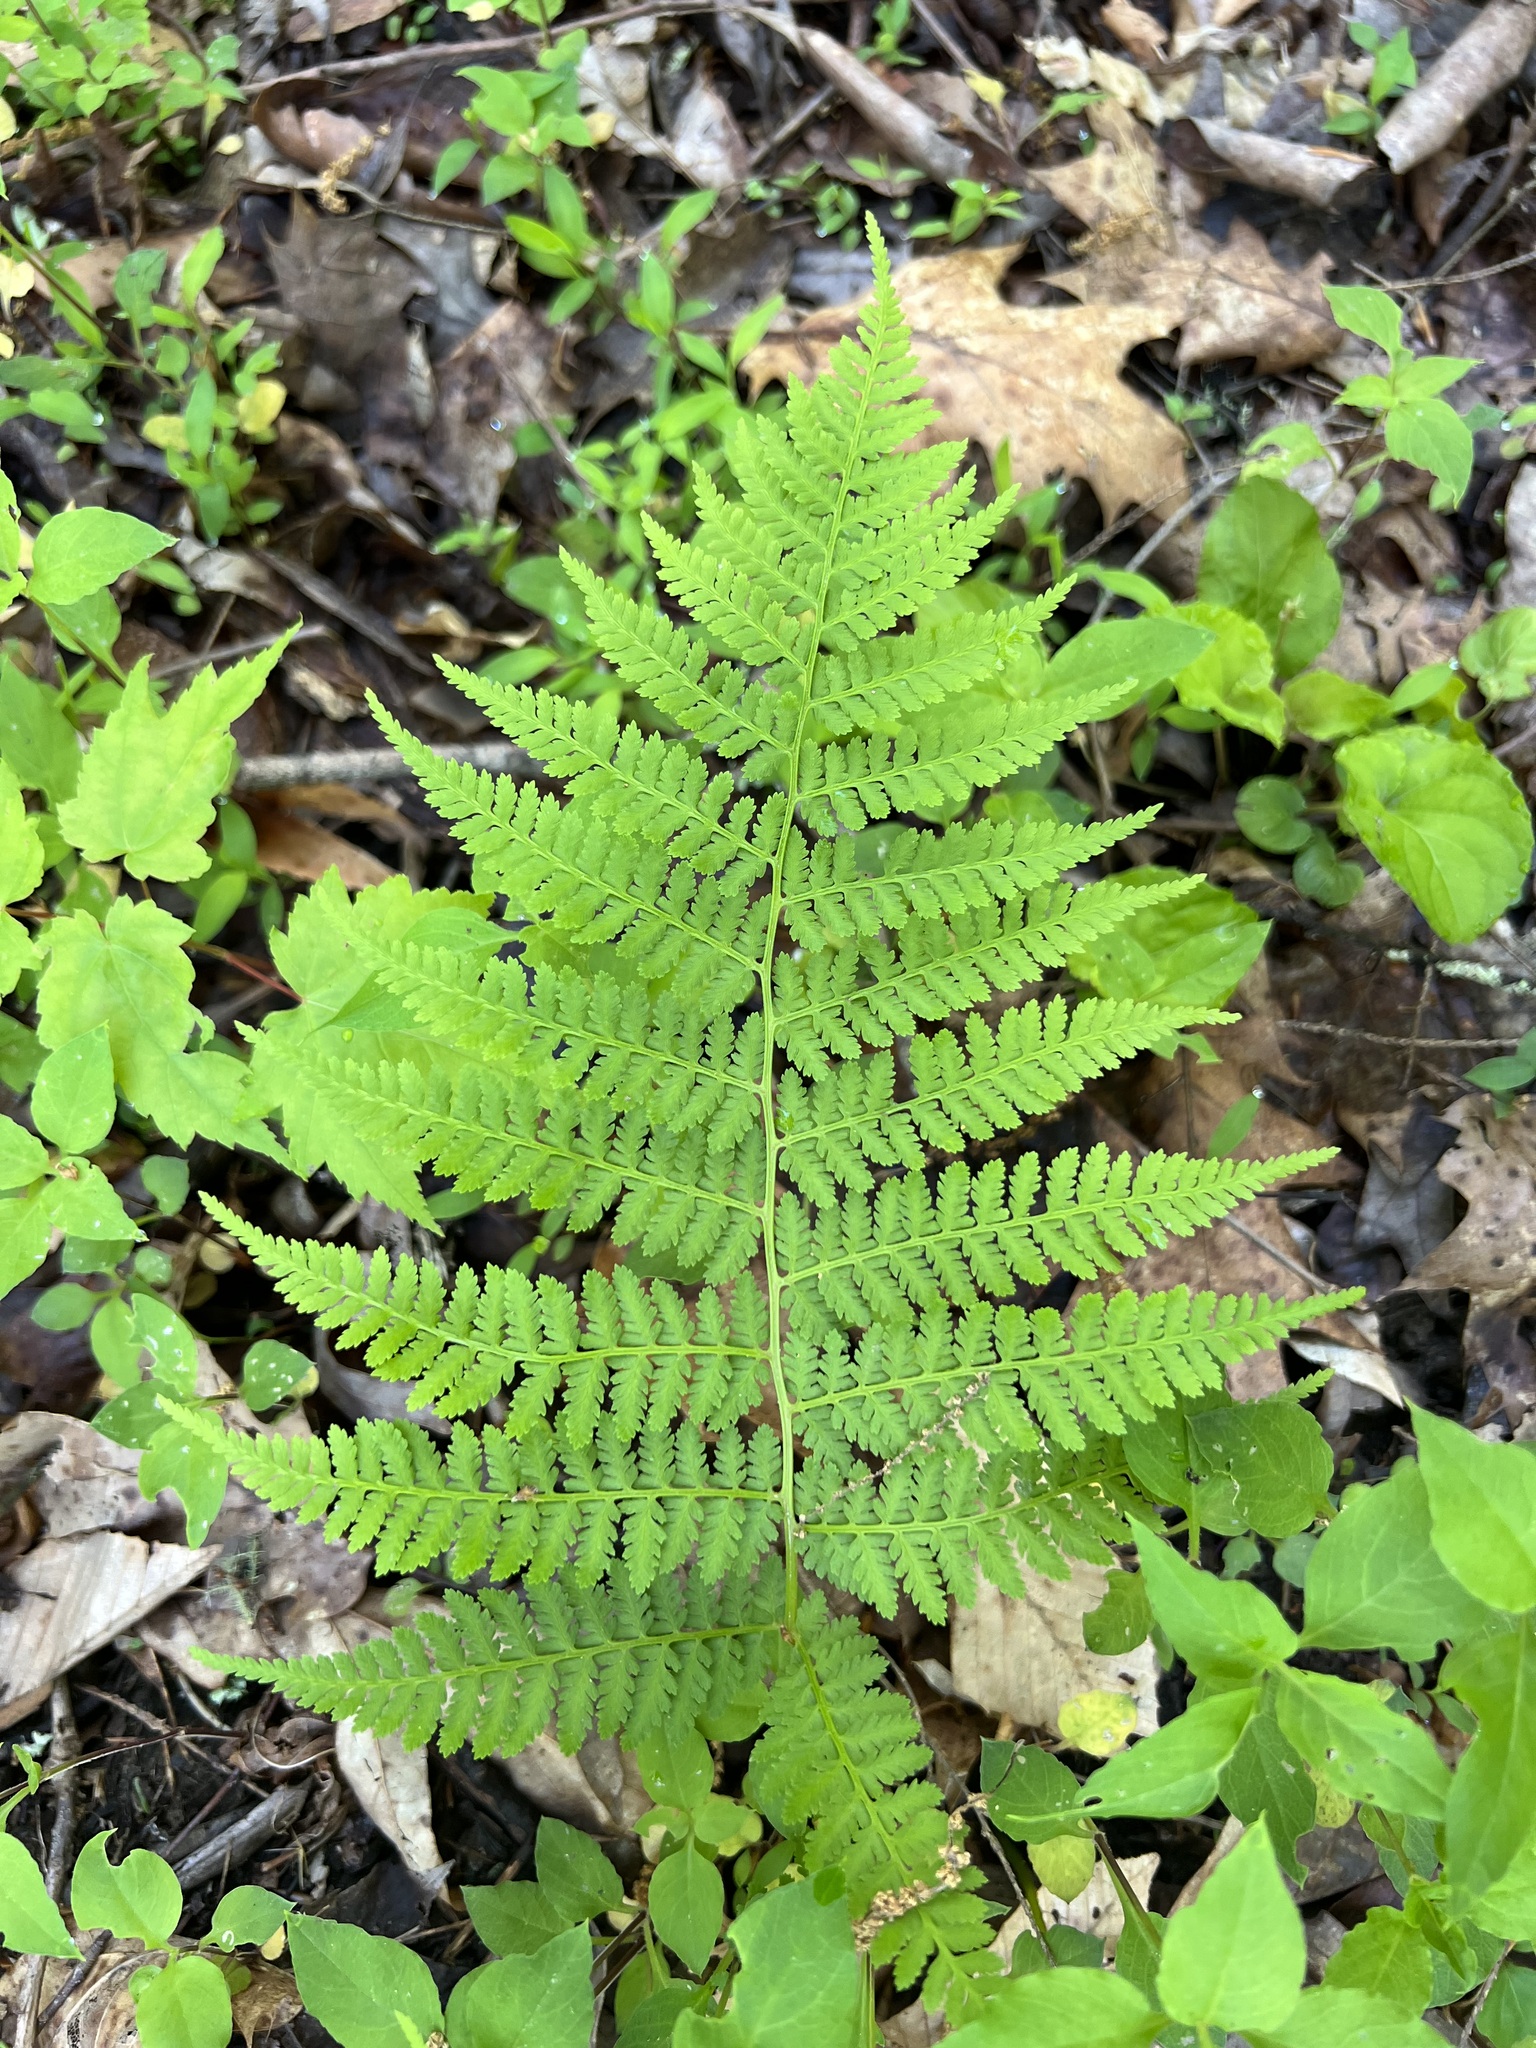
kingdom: Plantae
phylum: Tracheophyta
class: Polypodiopsida
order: Polypodiales
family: Dryopteridaceae
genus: Dryopteris
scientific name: Dryopteris intermedia
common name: Evergreen wood fern
